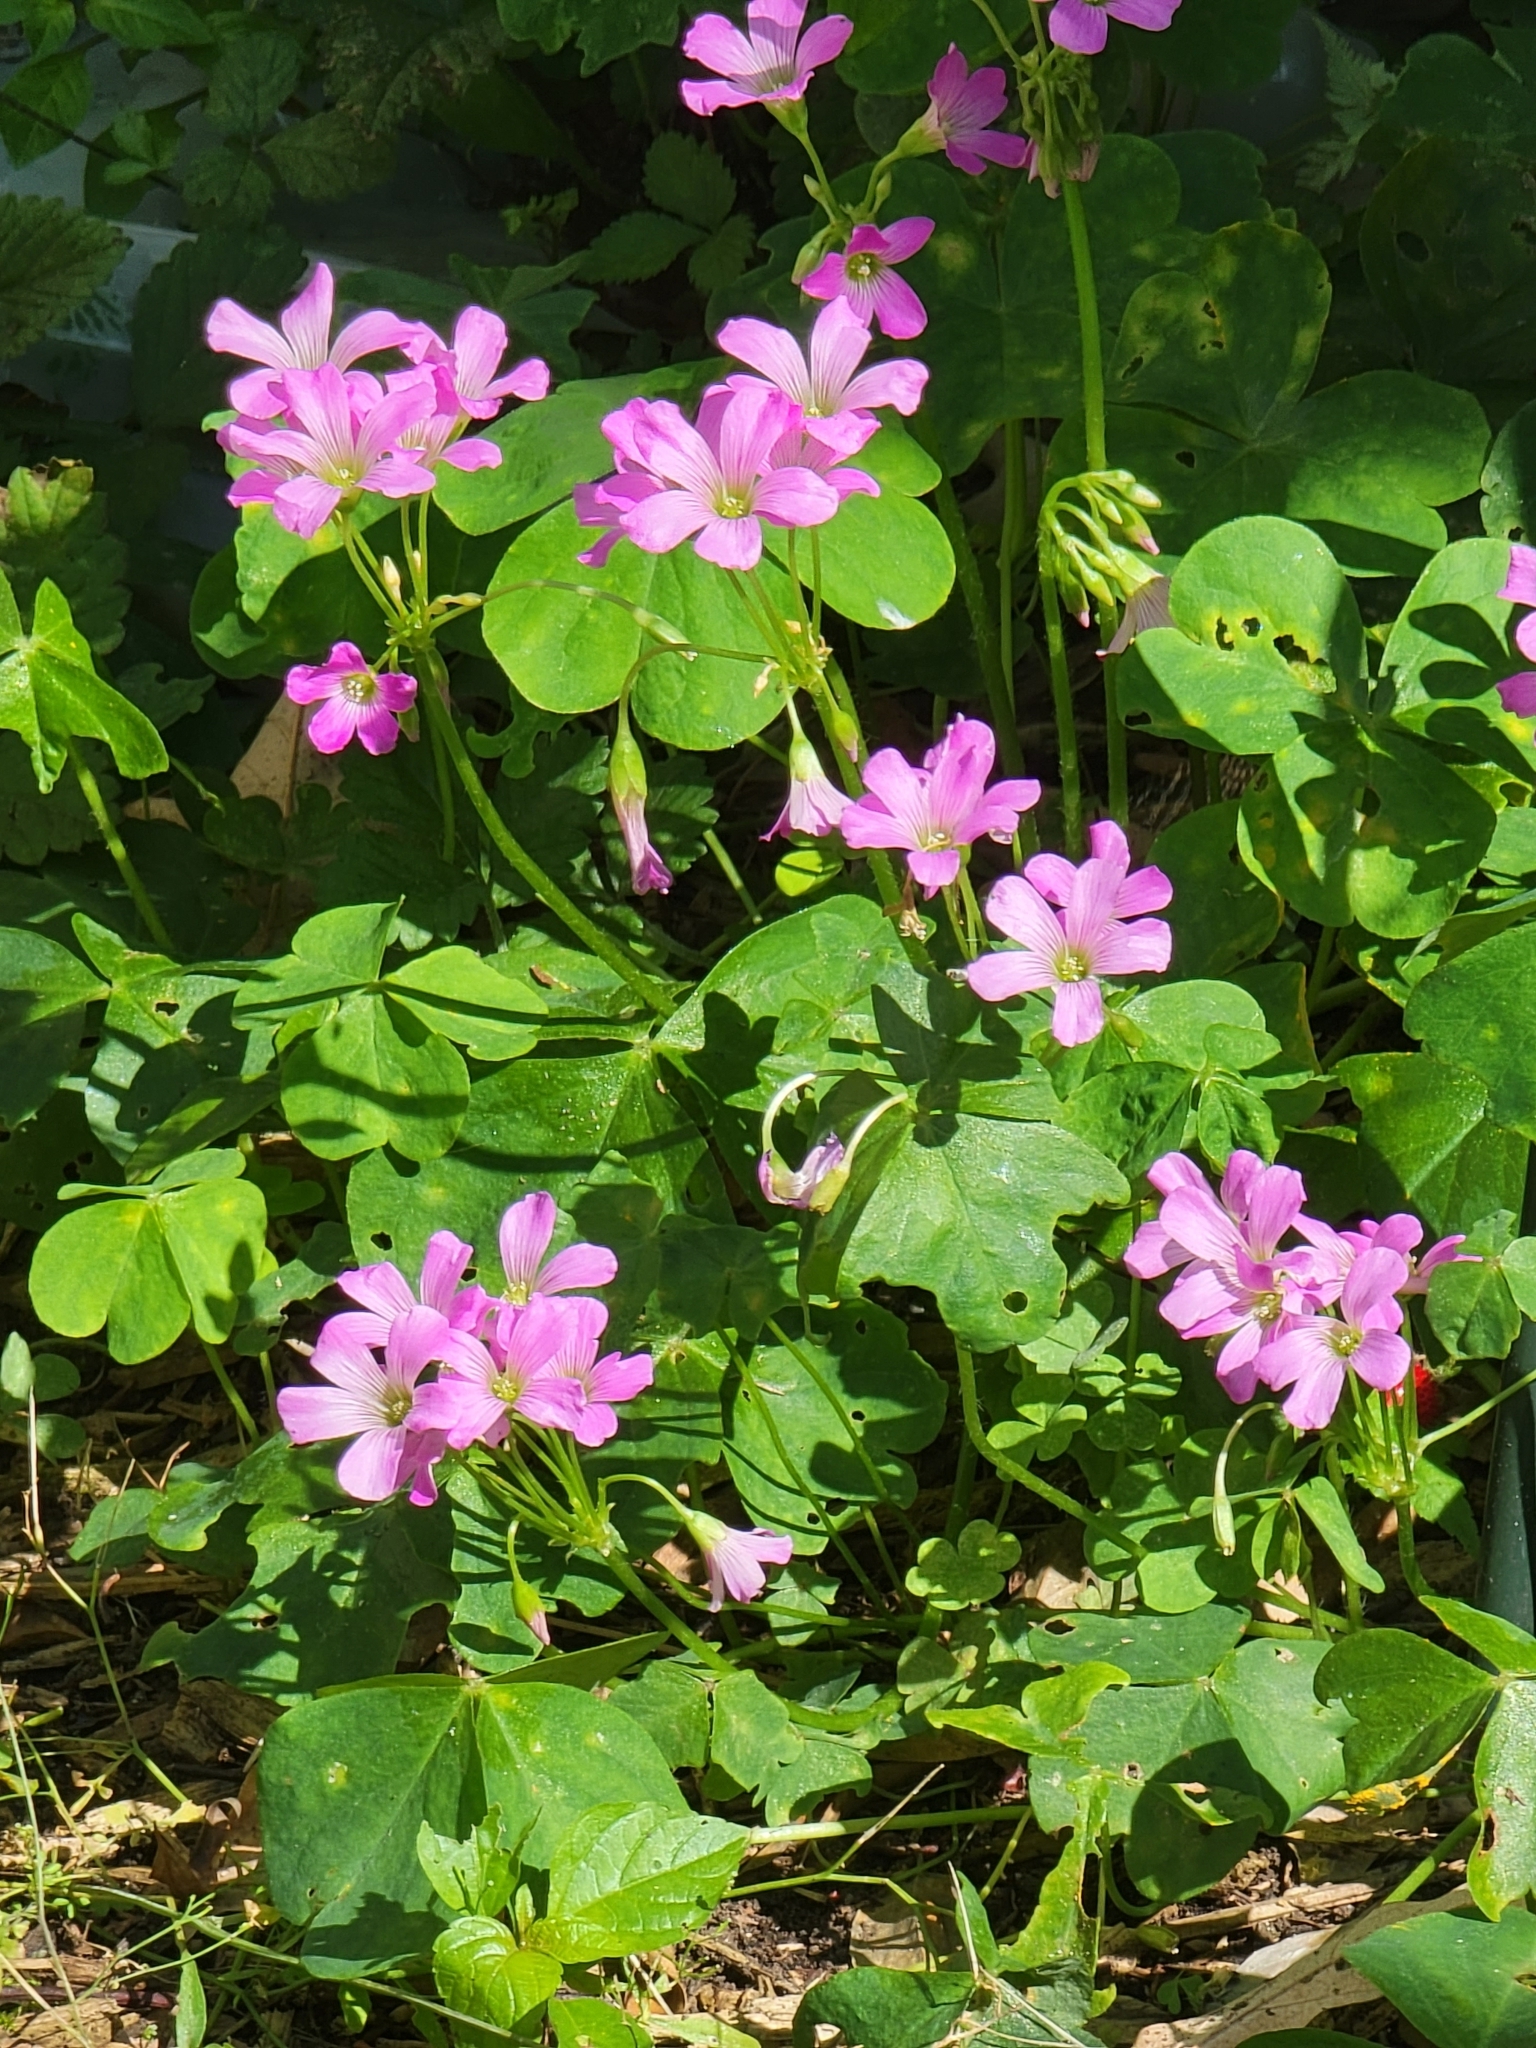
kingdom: Plantae
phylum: Tracheophyta
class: Magnoliopsida
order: Oxalidales
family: Oxalidaceae
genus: Oxalis
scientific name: Oxalis debilis
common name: Large-flowered pink-sorrel
